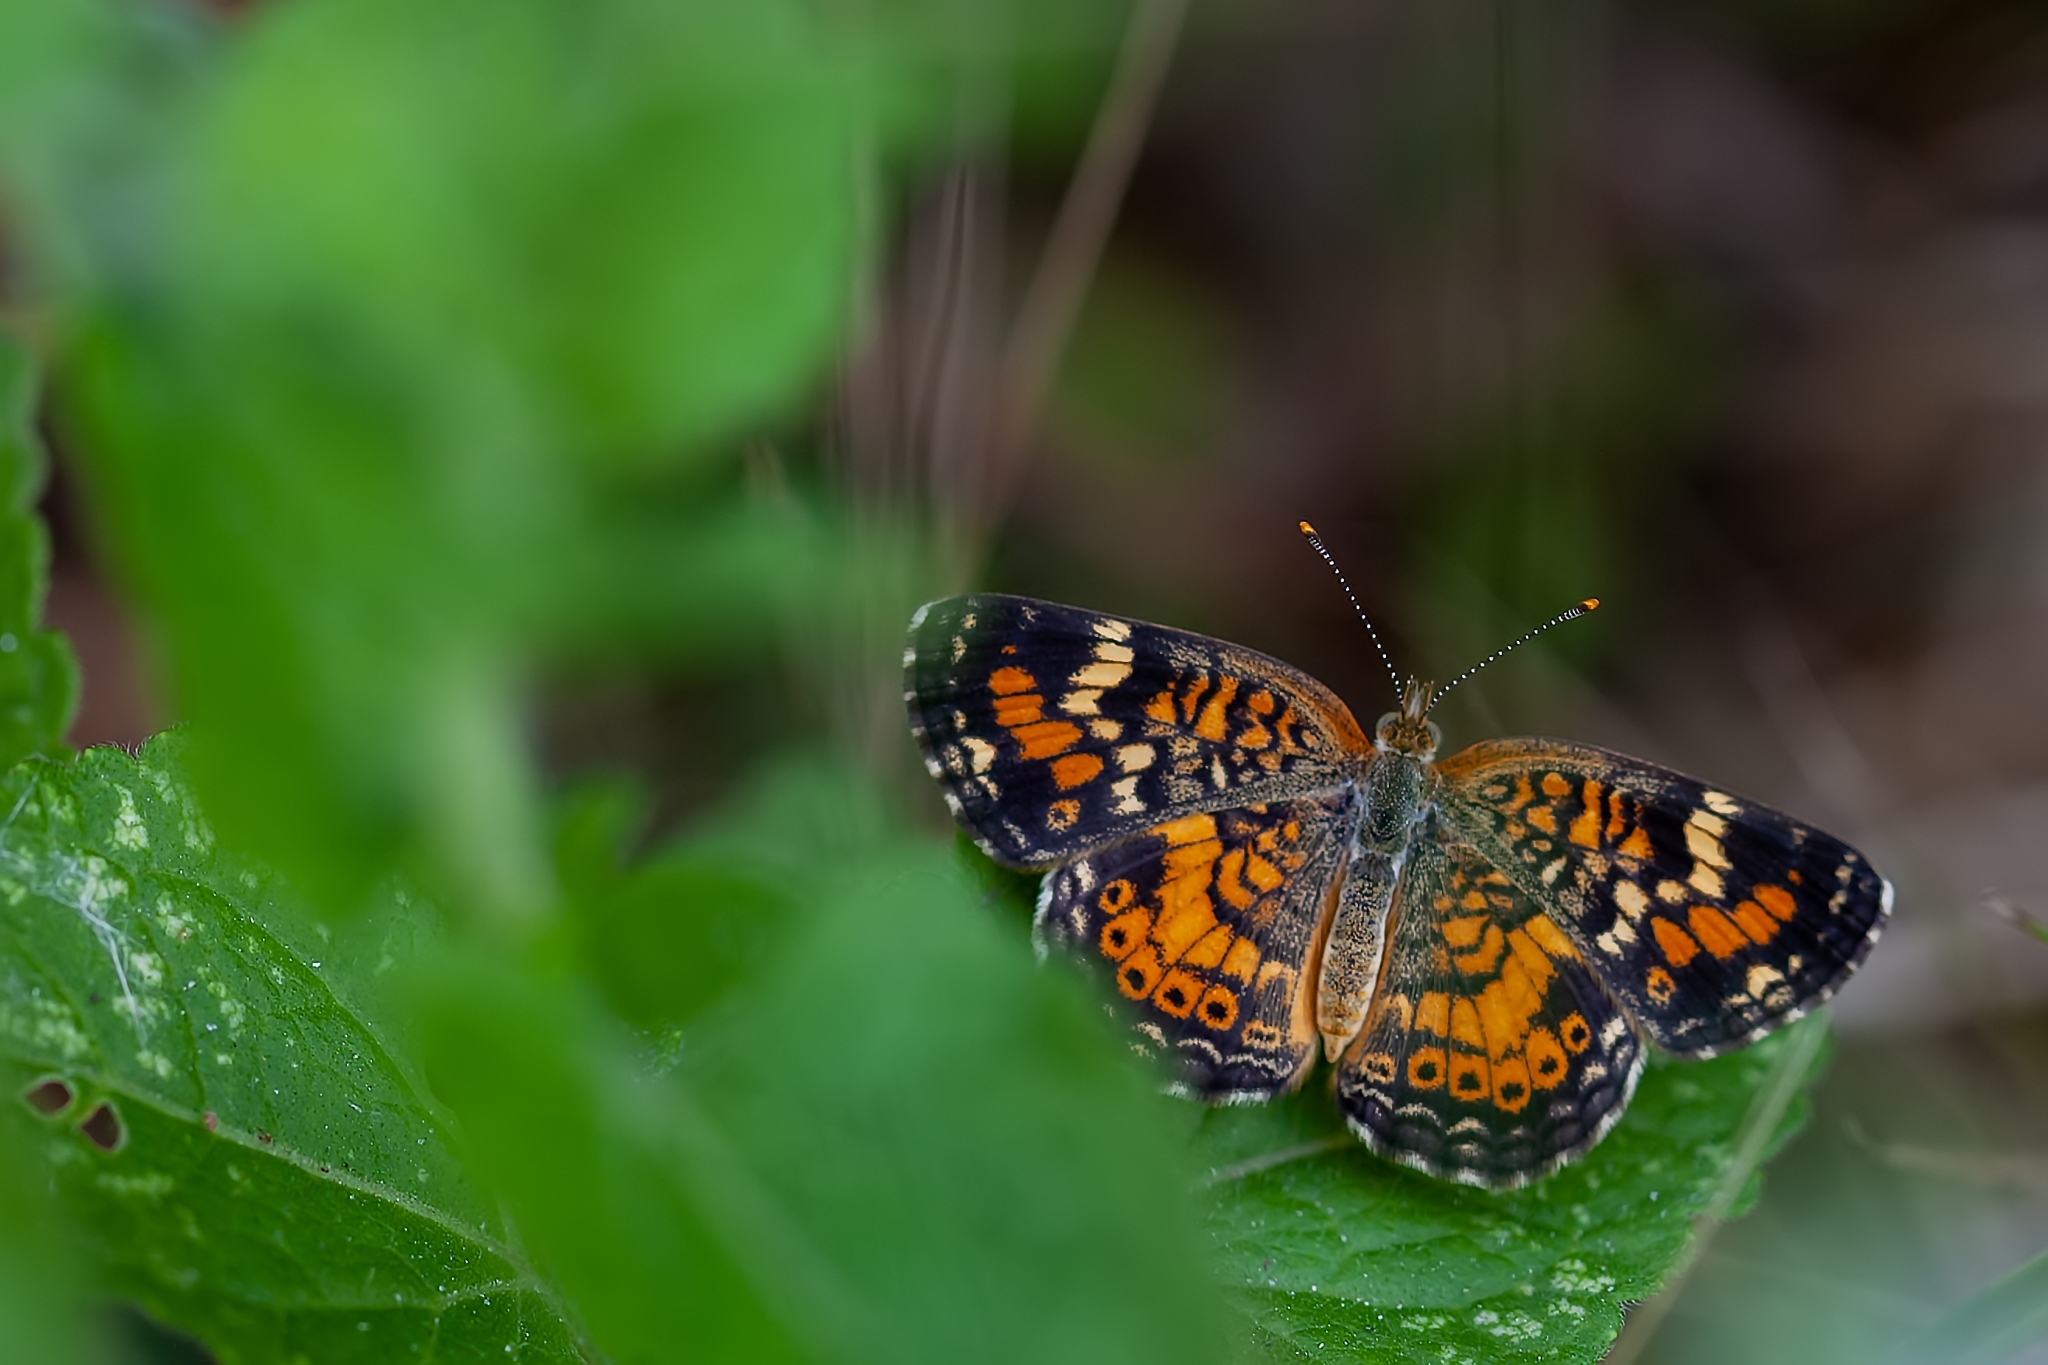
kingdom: Animalia
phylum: Arthropoda
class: Insecta
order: Lepidoptera
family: Nymphalidae
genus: Phyciodes
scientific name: Phyciodes phaon
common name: Phaon crescent
